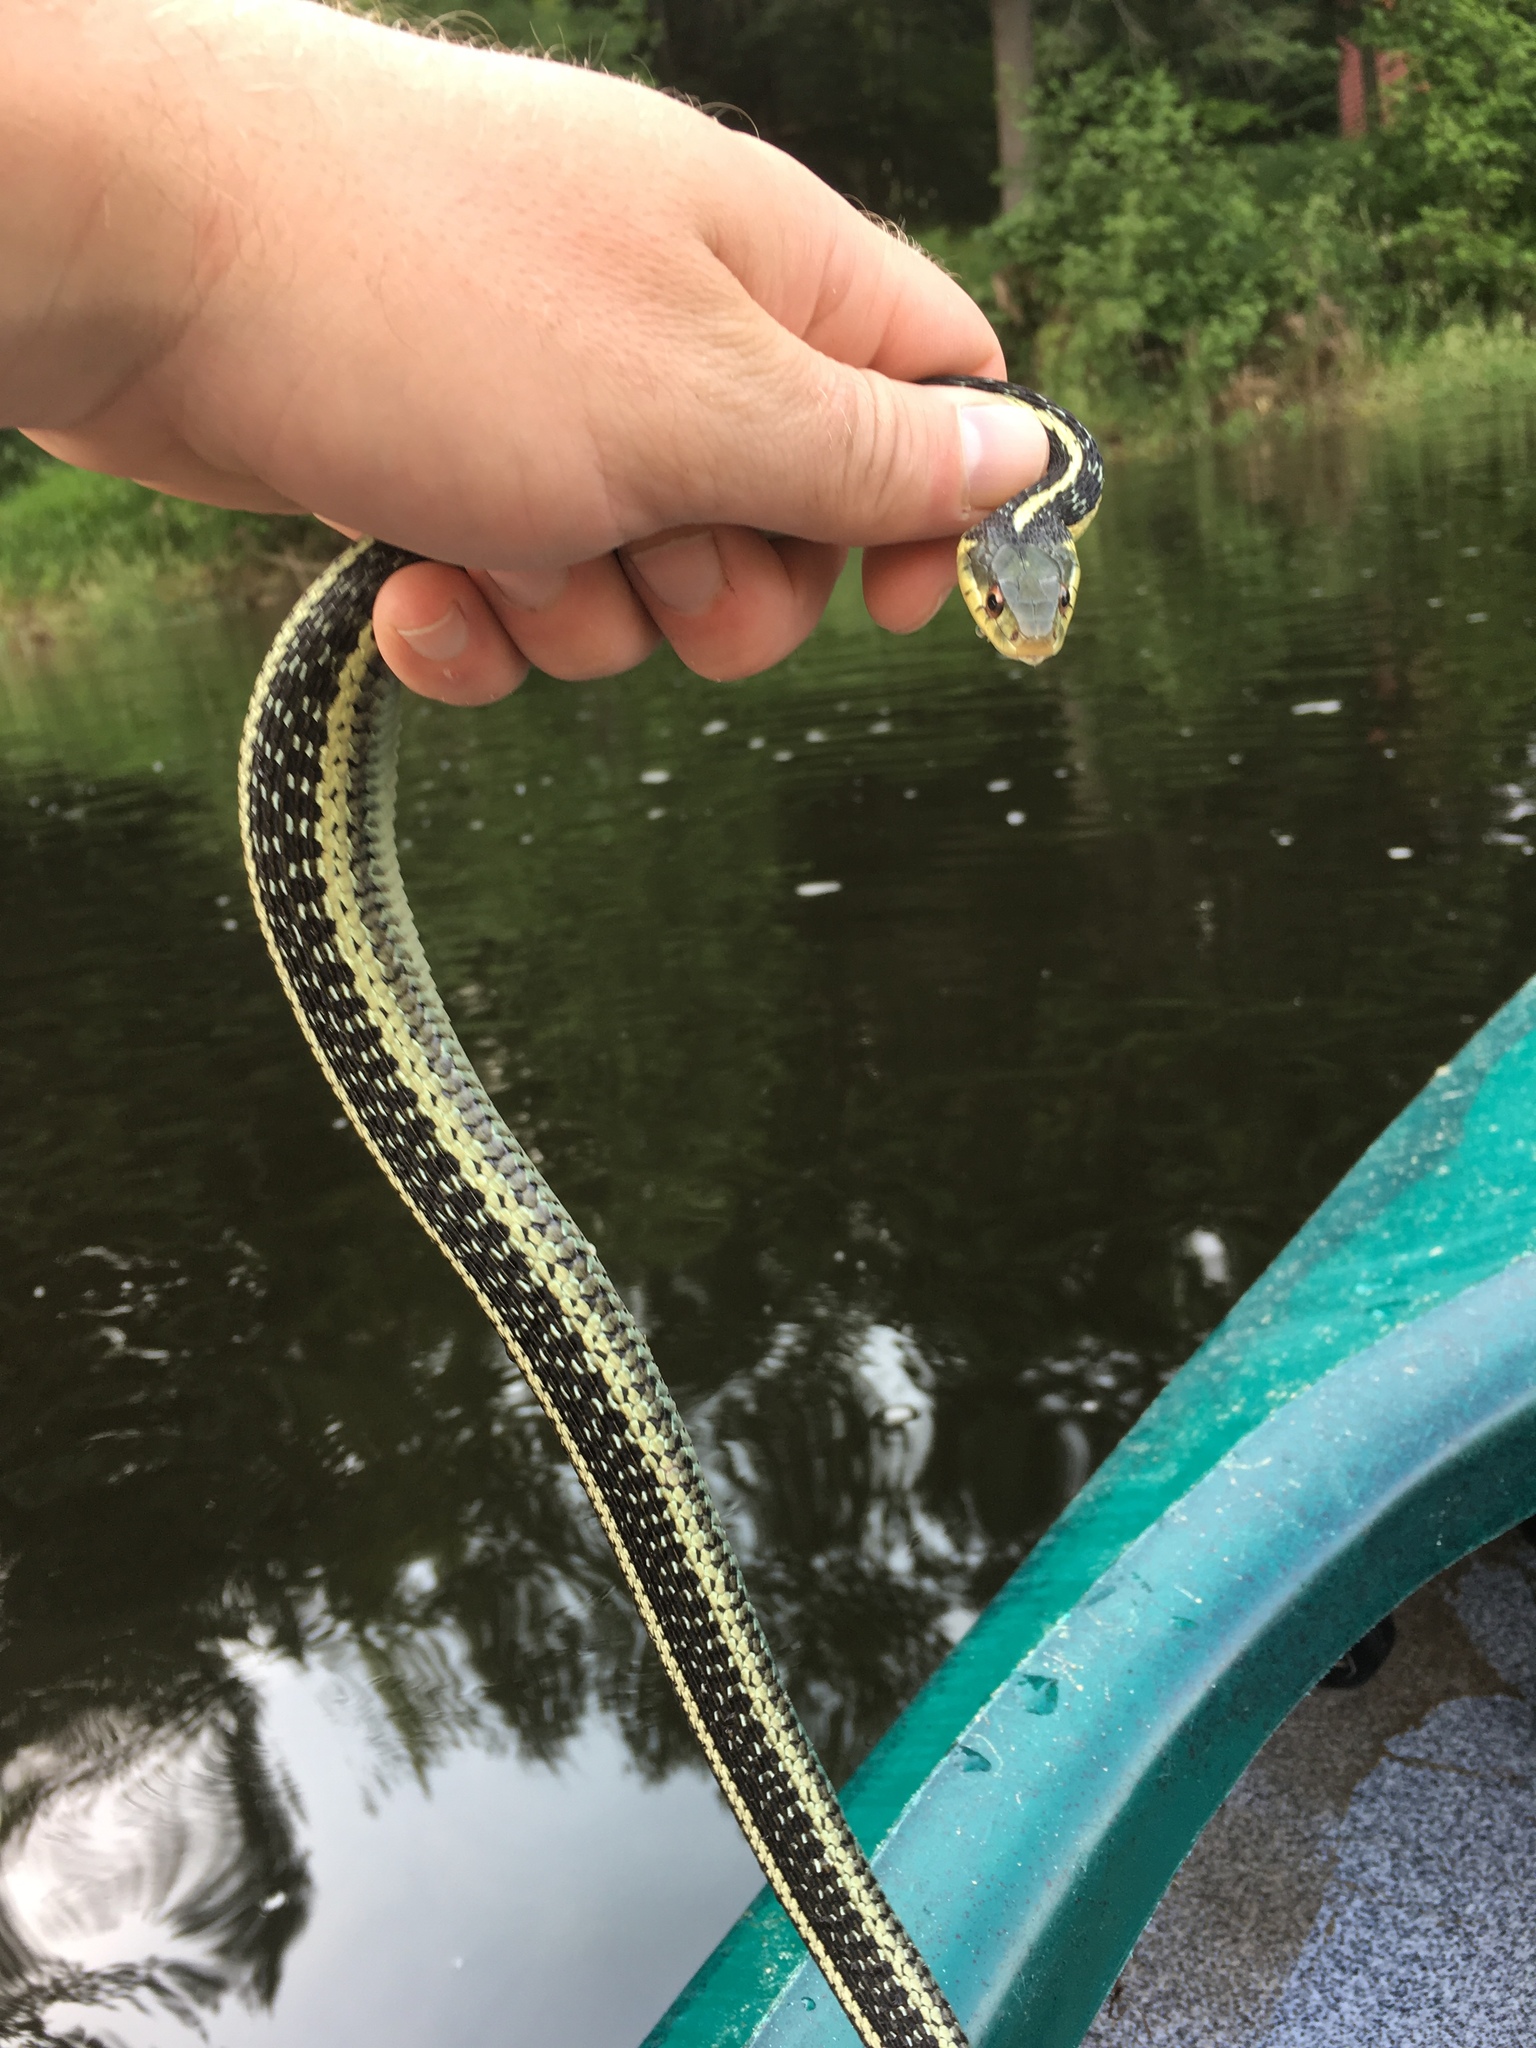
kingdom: Animalia
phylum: Chordata
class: Squamata
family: Colubridae
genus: Thamnophis
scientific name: Thamnophis sirtalis
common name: Common garter snake
